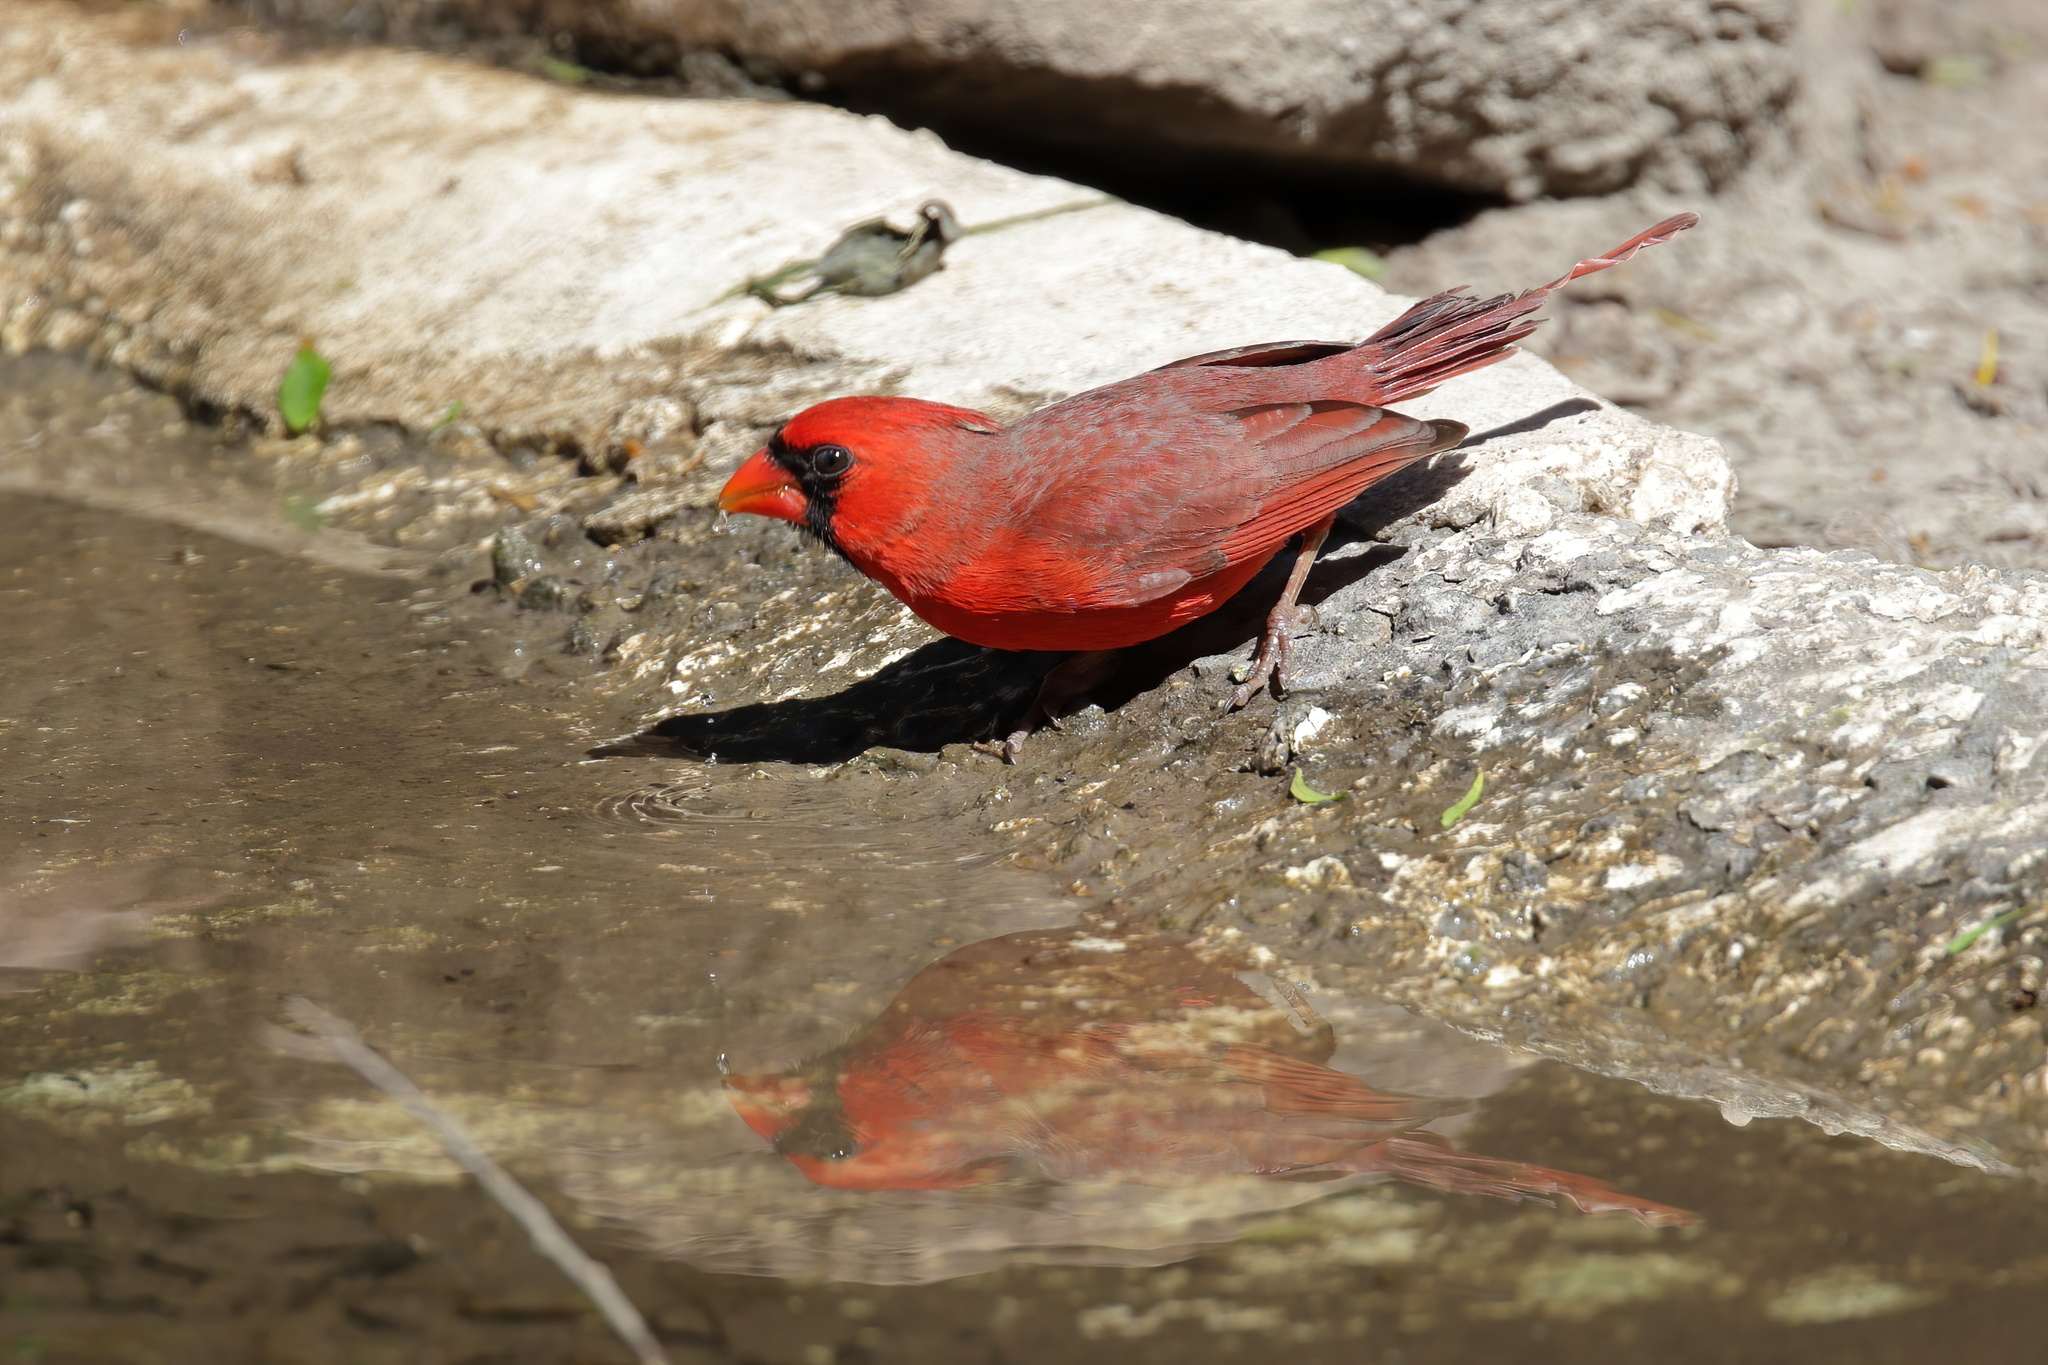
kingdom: Animalia
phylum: Chordata
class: Aves
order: Passeriformes
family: Cardinalidae
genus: Cardinalis
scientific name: Cardinalis cardinalis
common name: Northern cardinal
